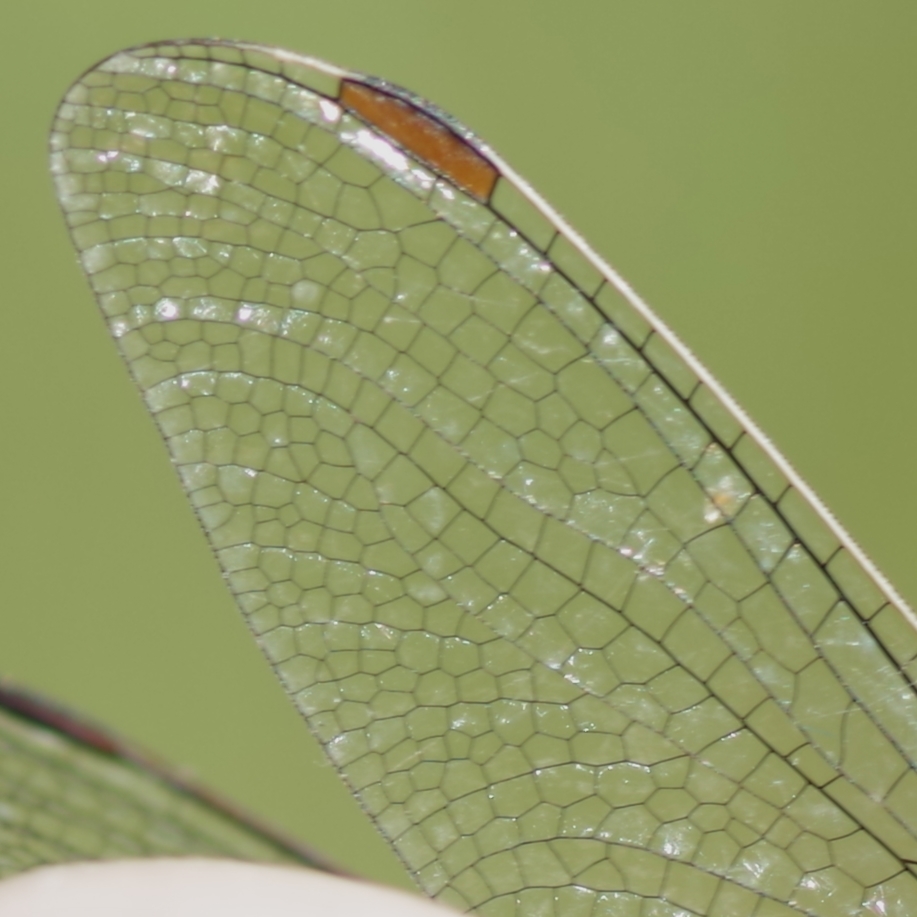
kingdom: Animalia
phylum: Arthropoda
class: Insecta
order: Odonata
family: Libellulidae
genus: Orthetrum
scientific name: Orthetrum brunneum
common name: Southern skimmer
